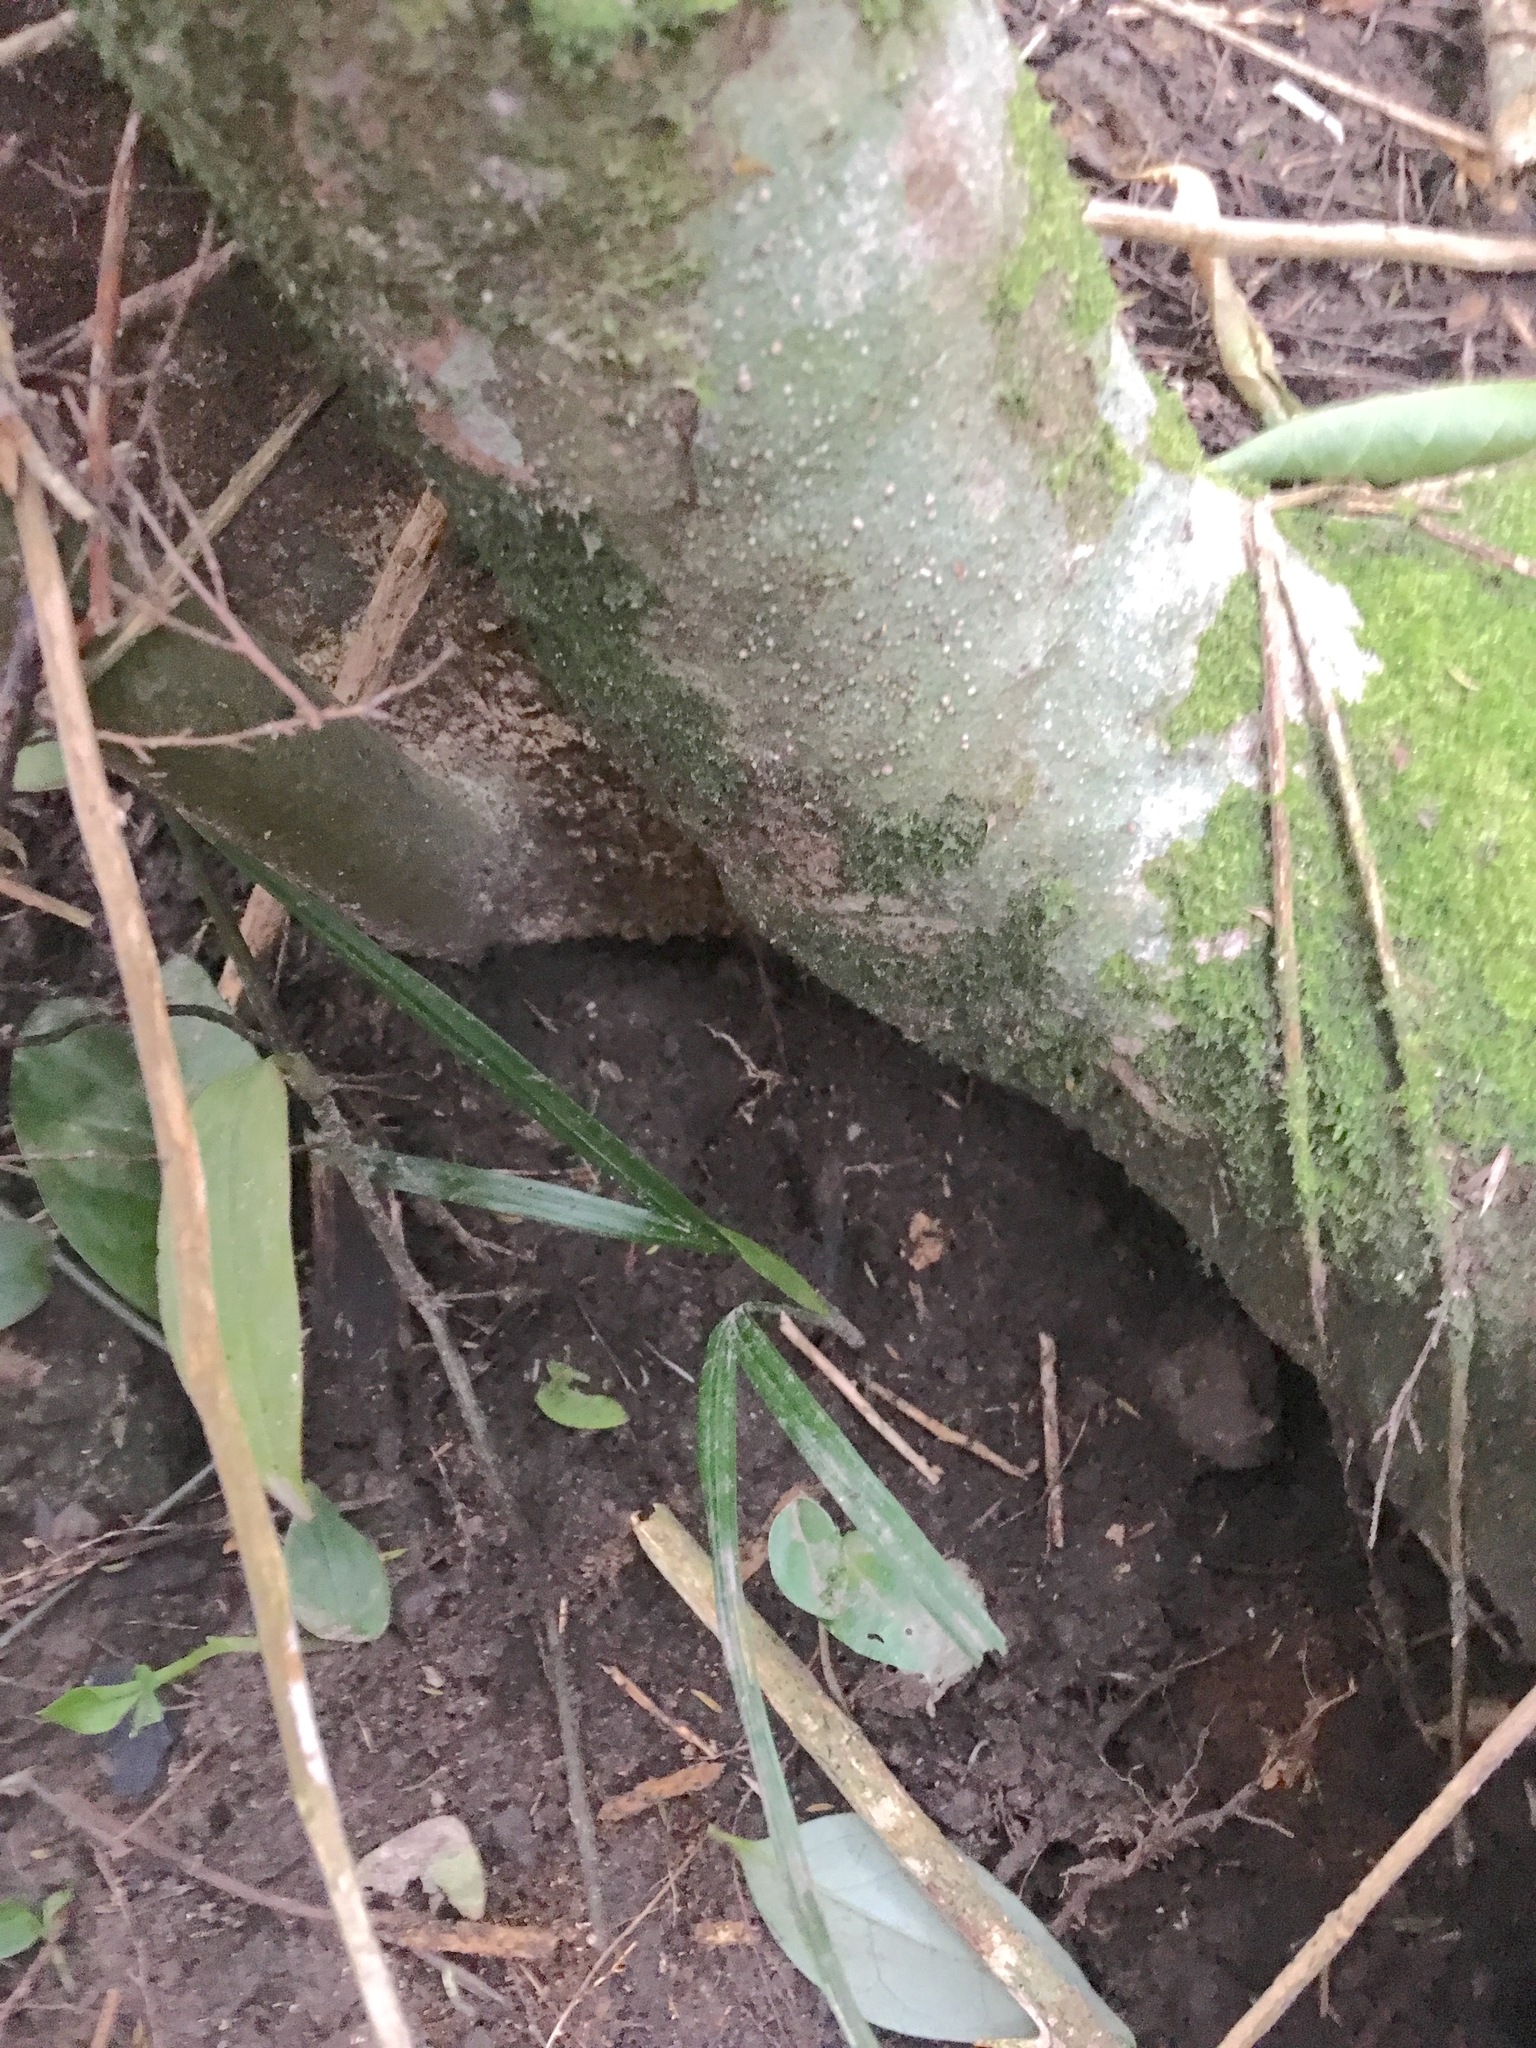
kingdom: Plantae
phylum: Tracheophyta
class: Liliopsida
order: Arecales
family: Arecaceae
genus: Rhopalostylis
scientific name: Rhopalostylis sapida
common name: Feather-duster palm
